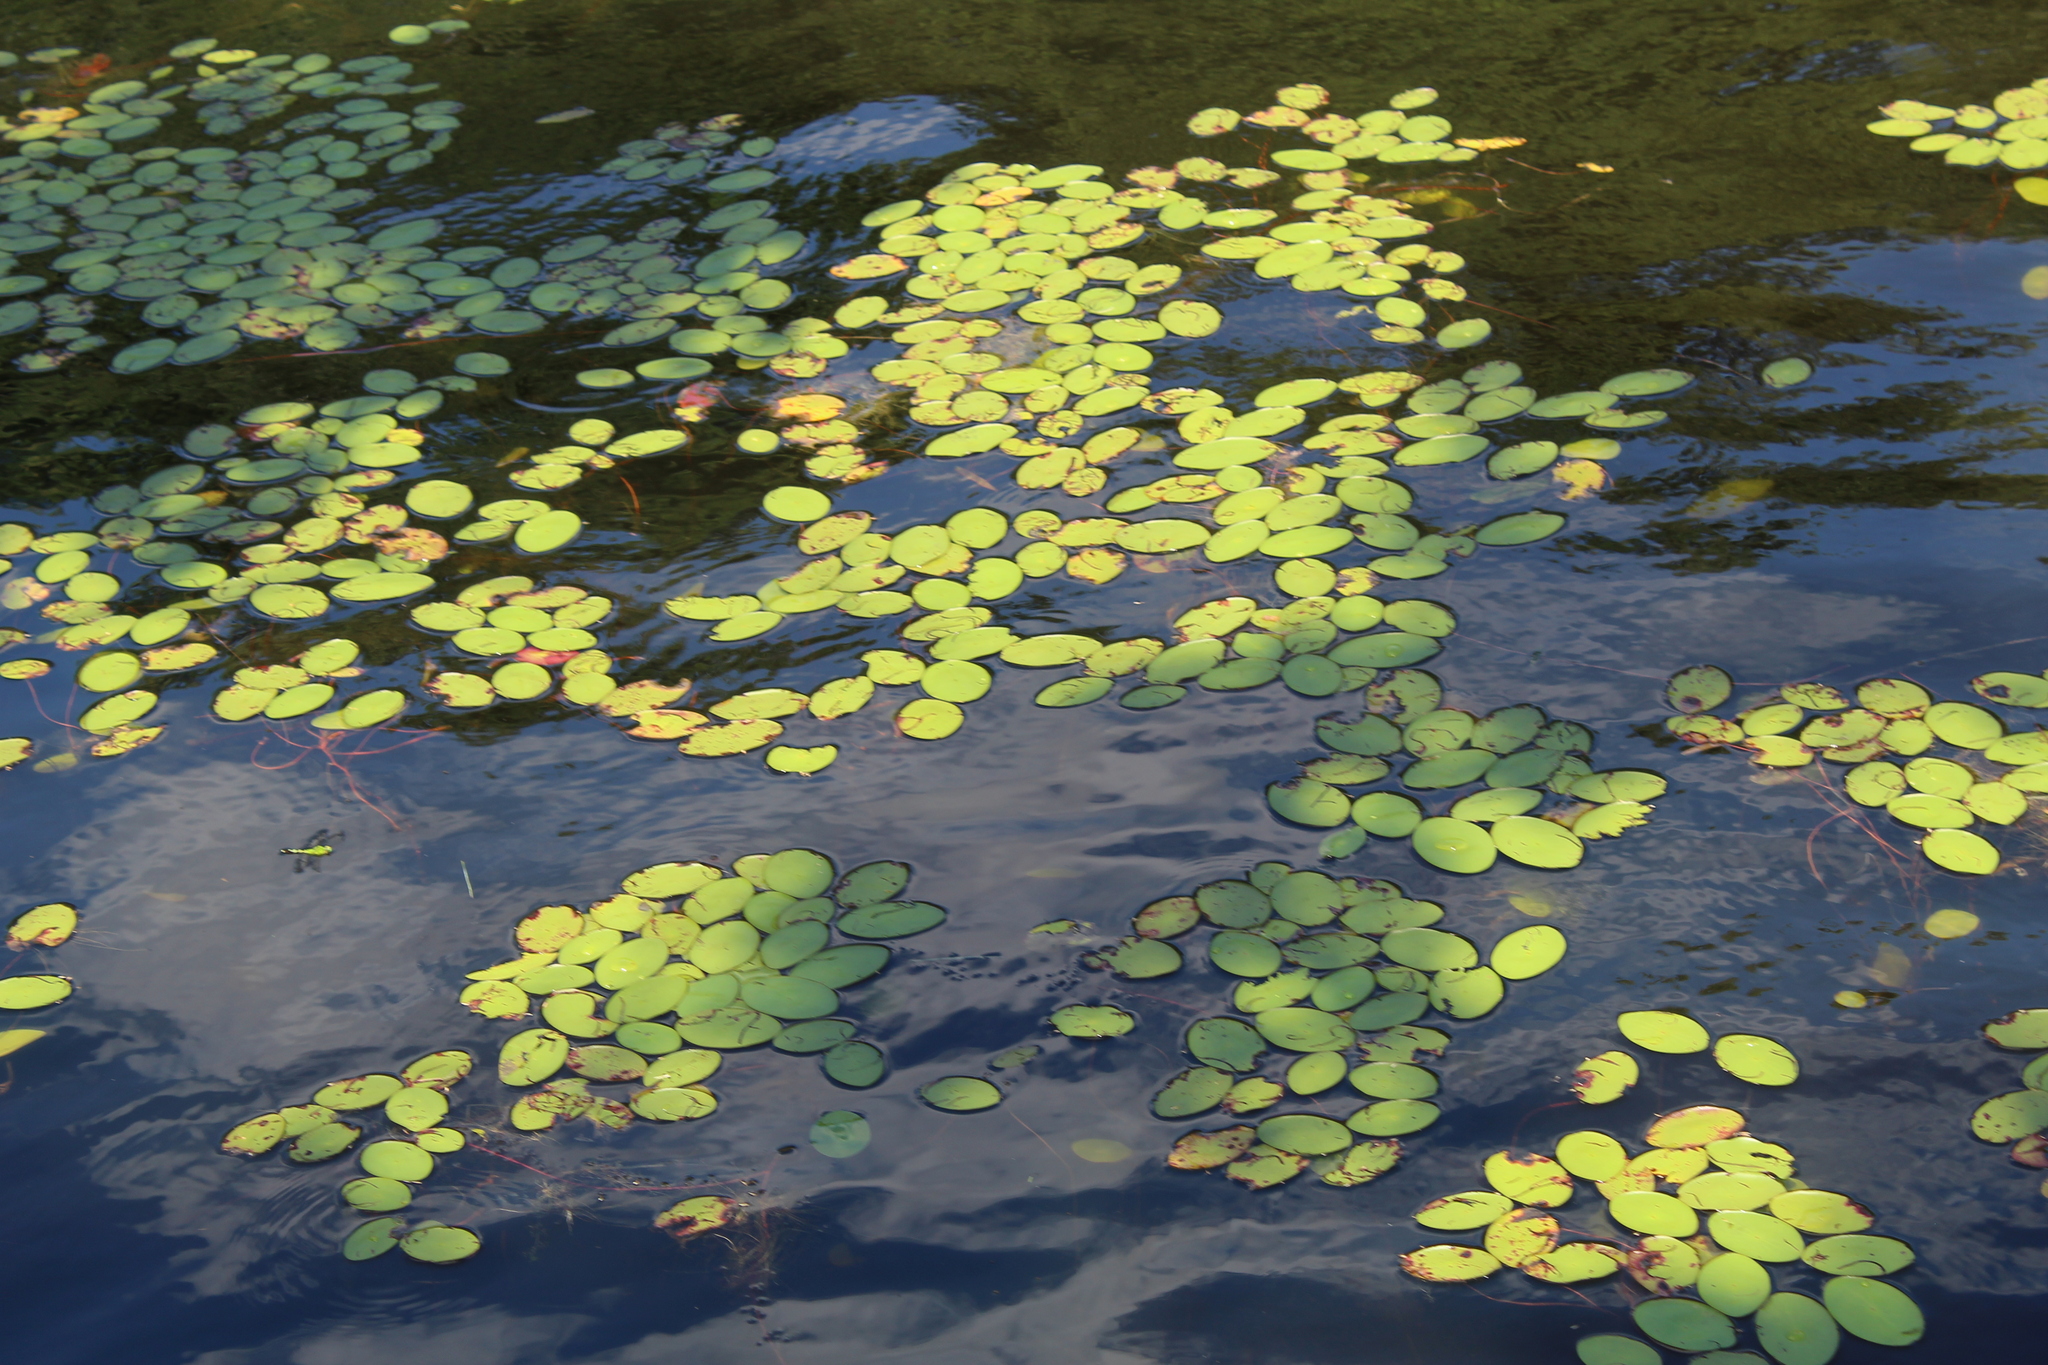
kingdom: Plantae
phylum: Tracheophyta
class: Magnoliopsida
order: Nymphaeales
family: Cabombaceae
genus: Brasenia
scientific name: Brasenia schreberi
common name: Water-shield
